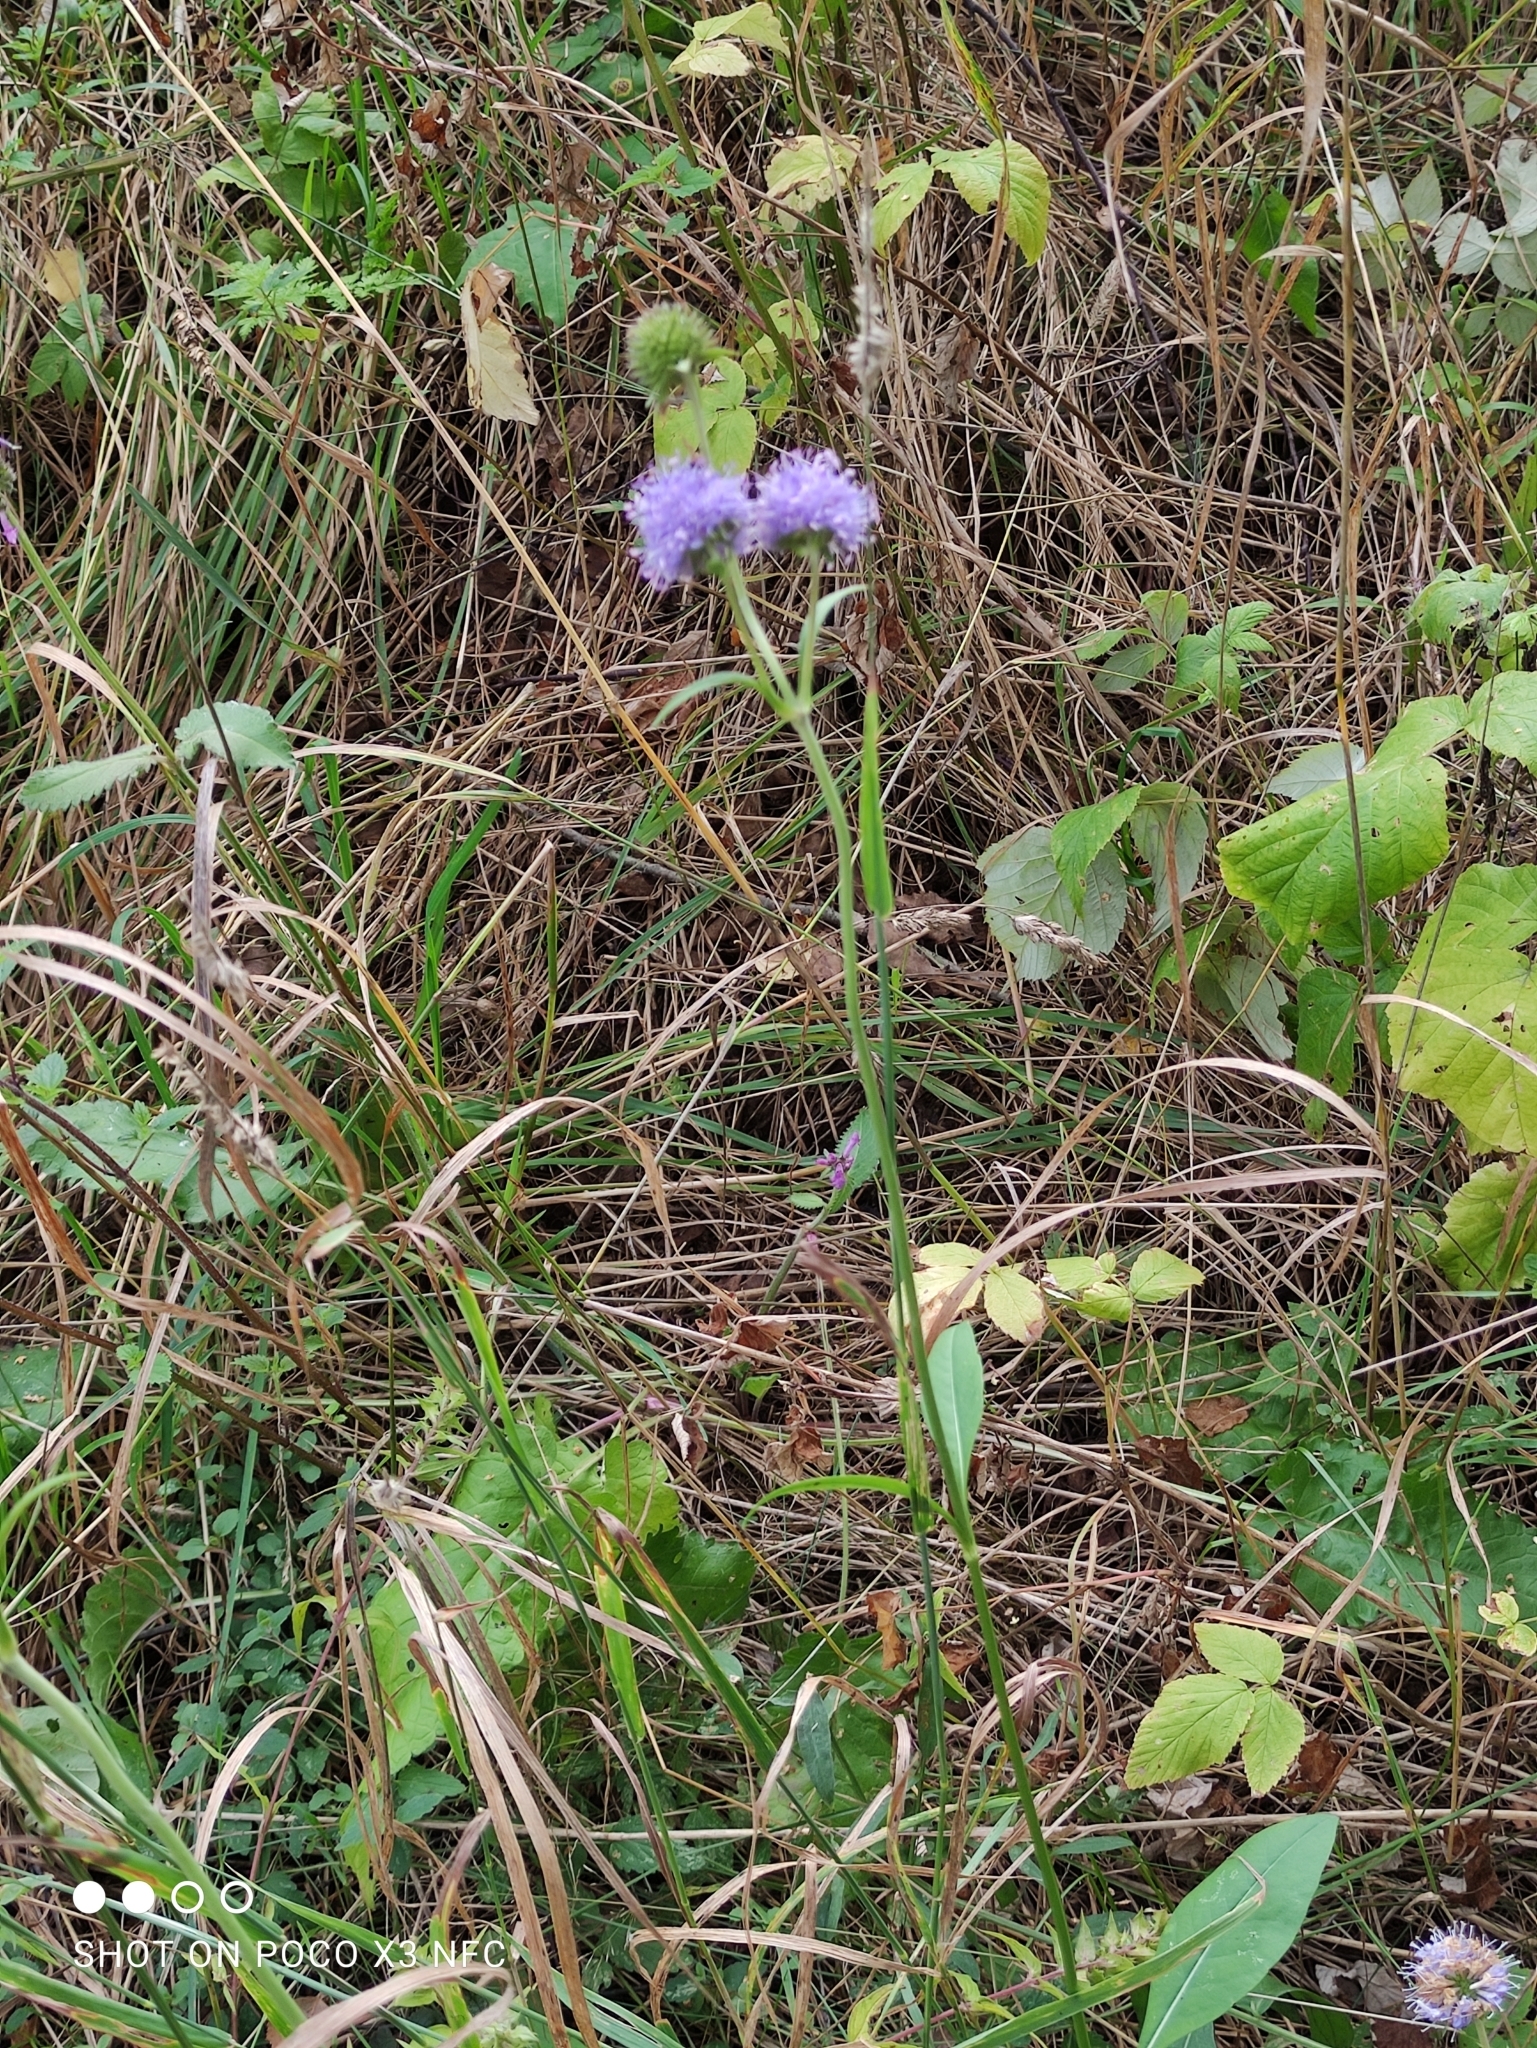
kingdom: Plantae
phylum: Tracheophyta
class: Magnoliopsida
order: Dipsacales
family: Caprifoliaceae
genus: Succisa
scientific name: Succisa pratensis
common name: Devil's-bit
